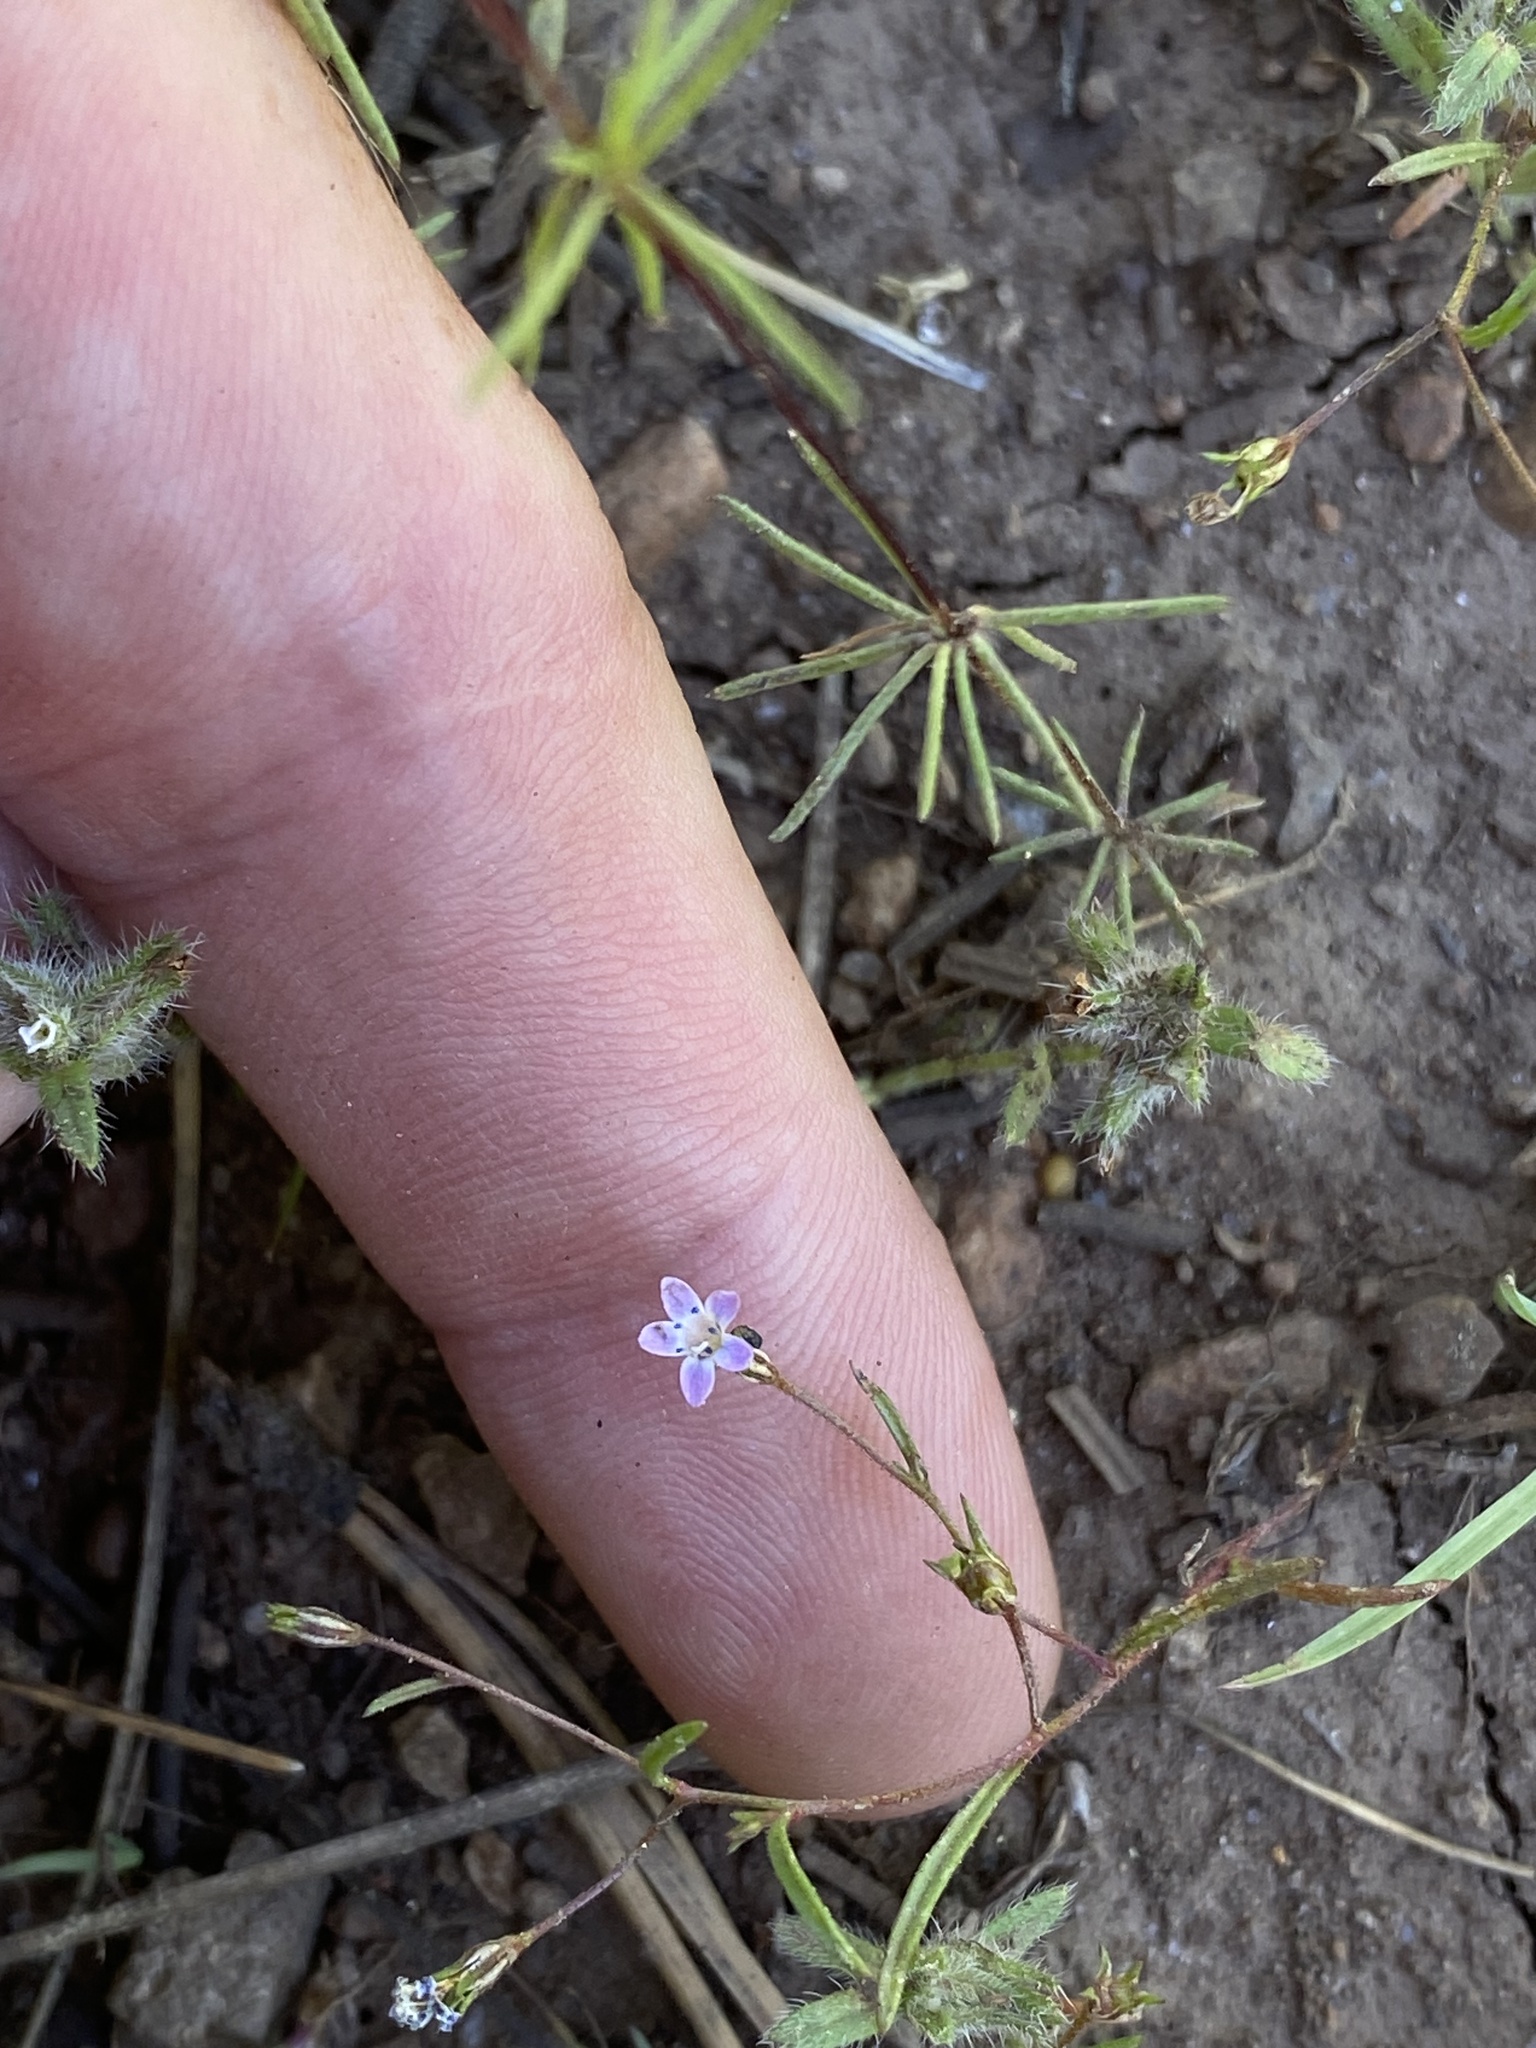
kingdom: Plantae
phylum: Tracheophyta
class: Magnoliopsida
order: Ericales
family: Polemoniaceae
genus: Allophyllum
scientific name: Allophyllum capillare
